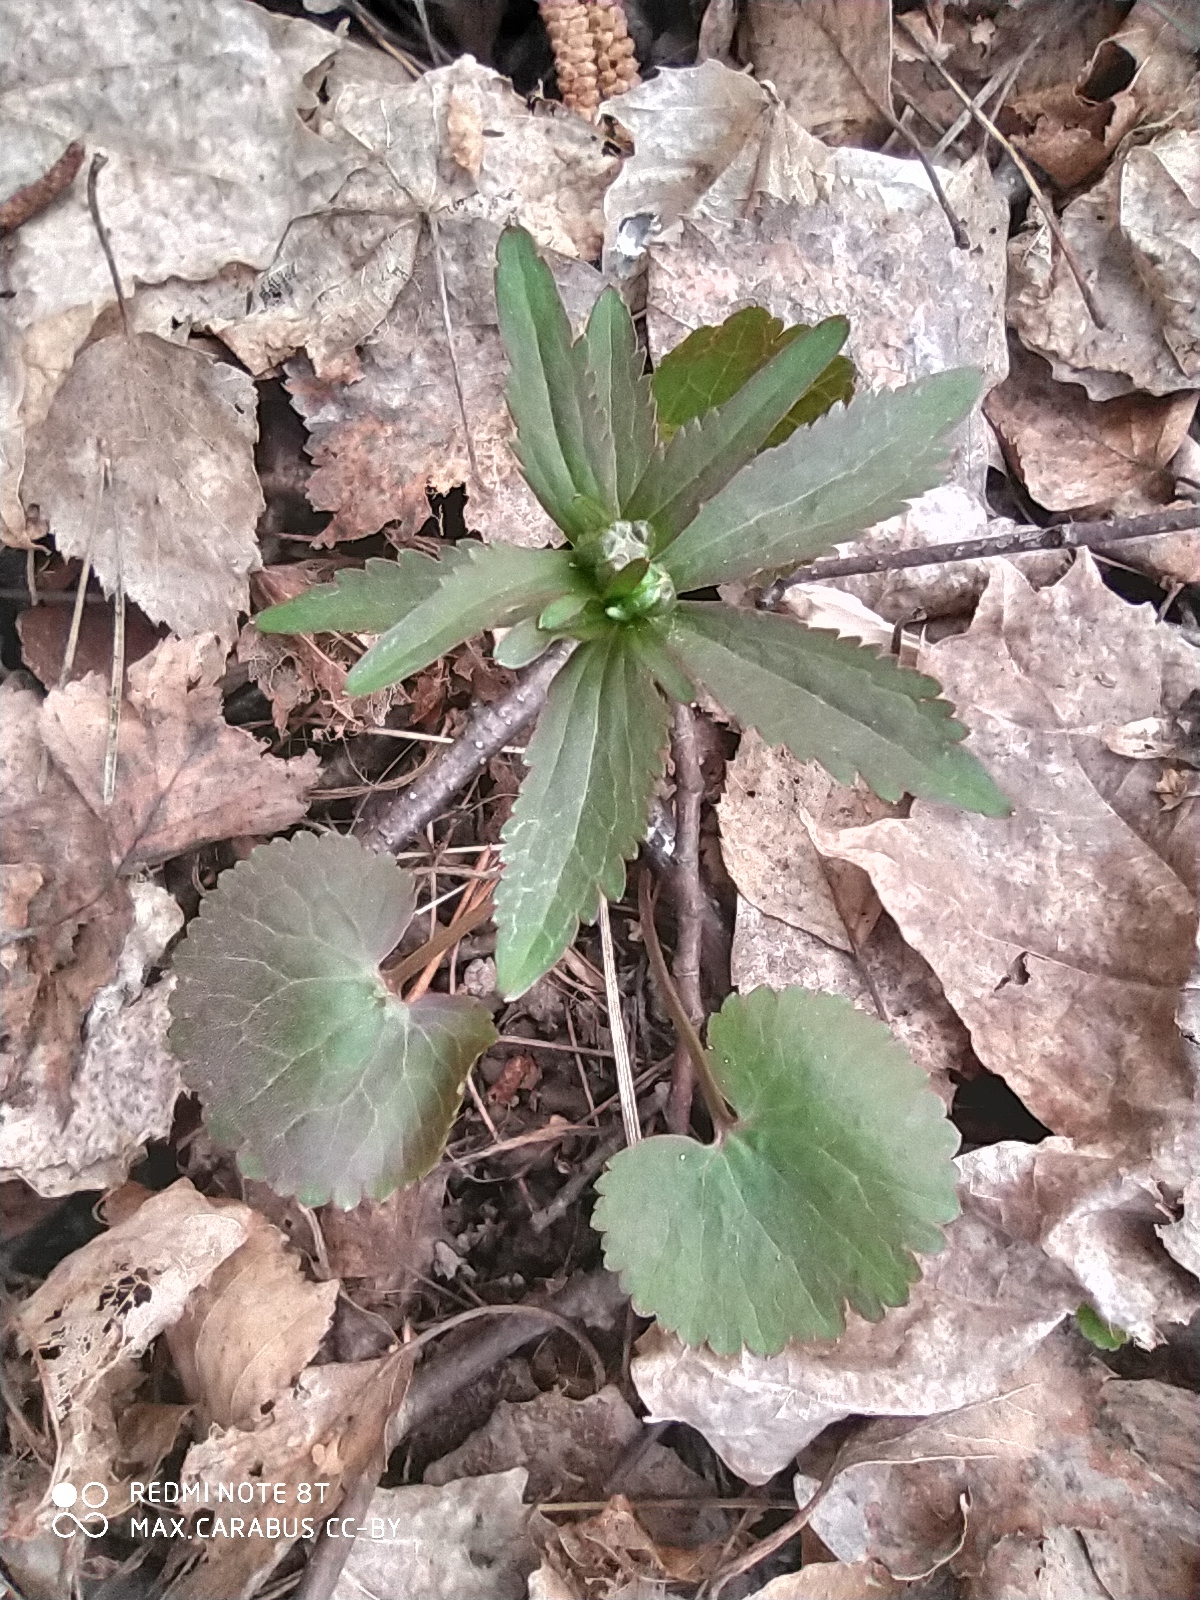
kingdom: Plantae
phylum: Tracheophyta
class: Magnoliopsida
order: Ranunculales
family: Ranunculaceae
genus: Ranunculus
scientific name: Ranunculus cassubicus
